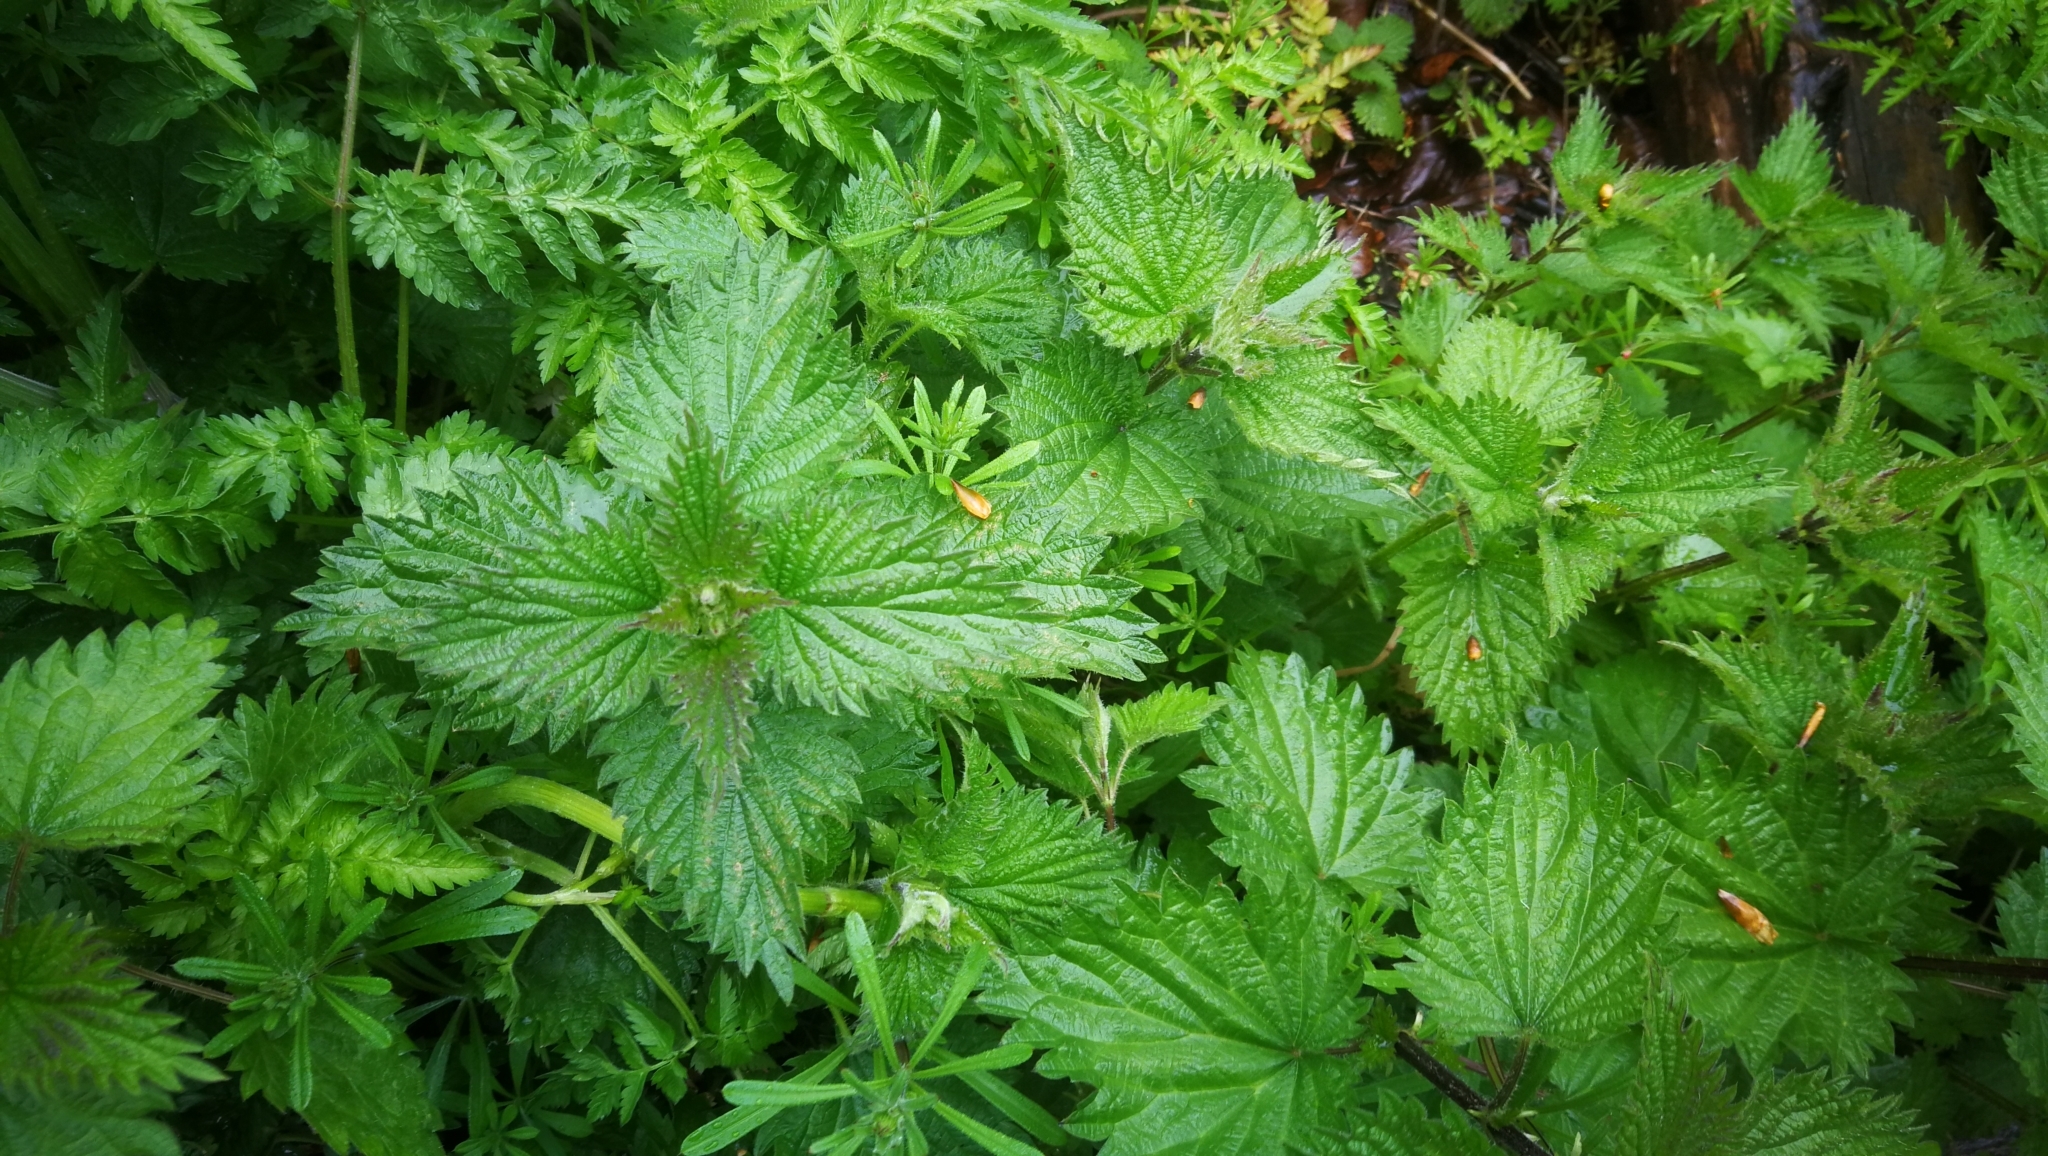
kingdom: Plantae
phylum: Tracheophyta
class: Magnoliopsida
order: Rosales
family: Urticaceae
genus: Urtica
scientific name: Urtica dioica
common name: Common nettle
